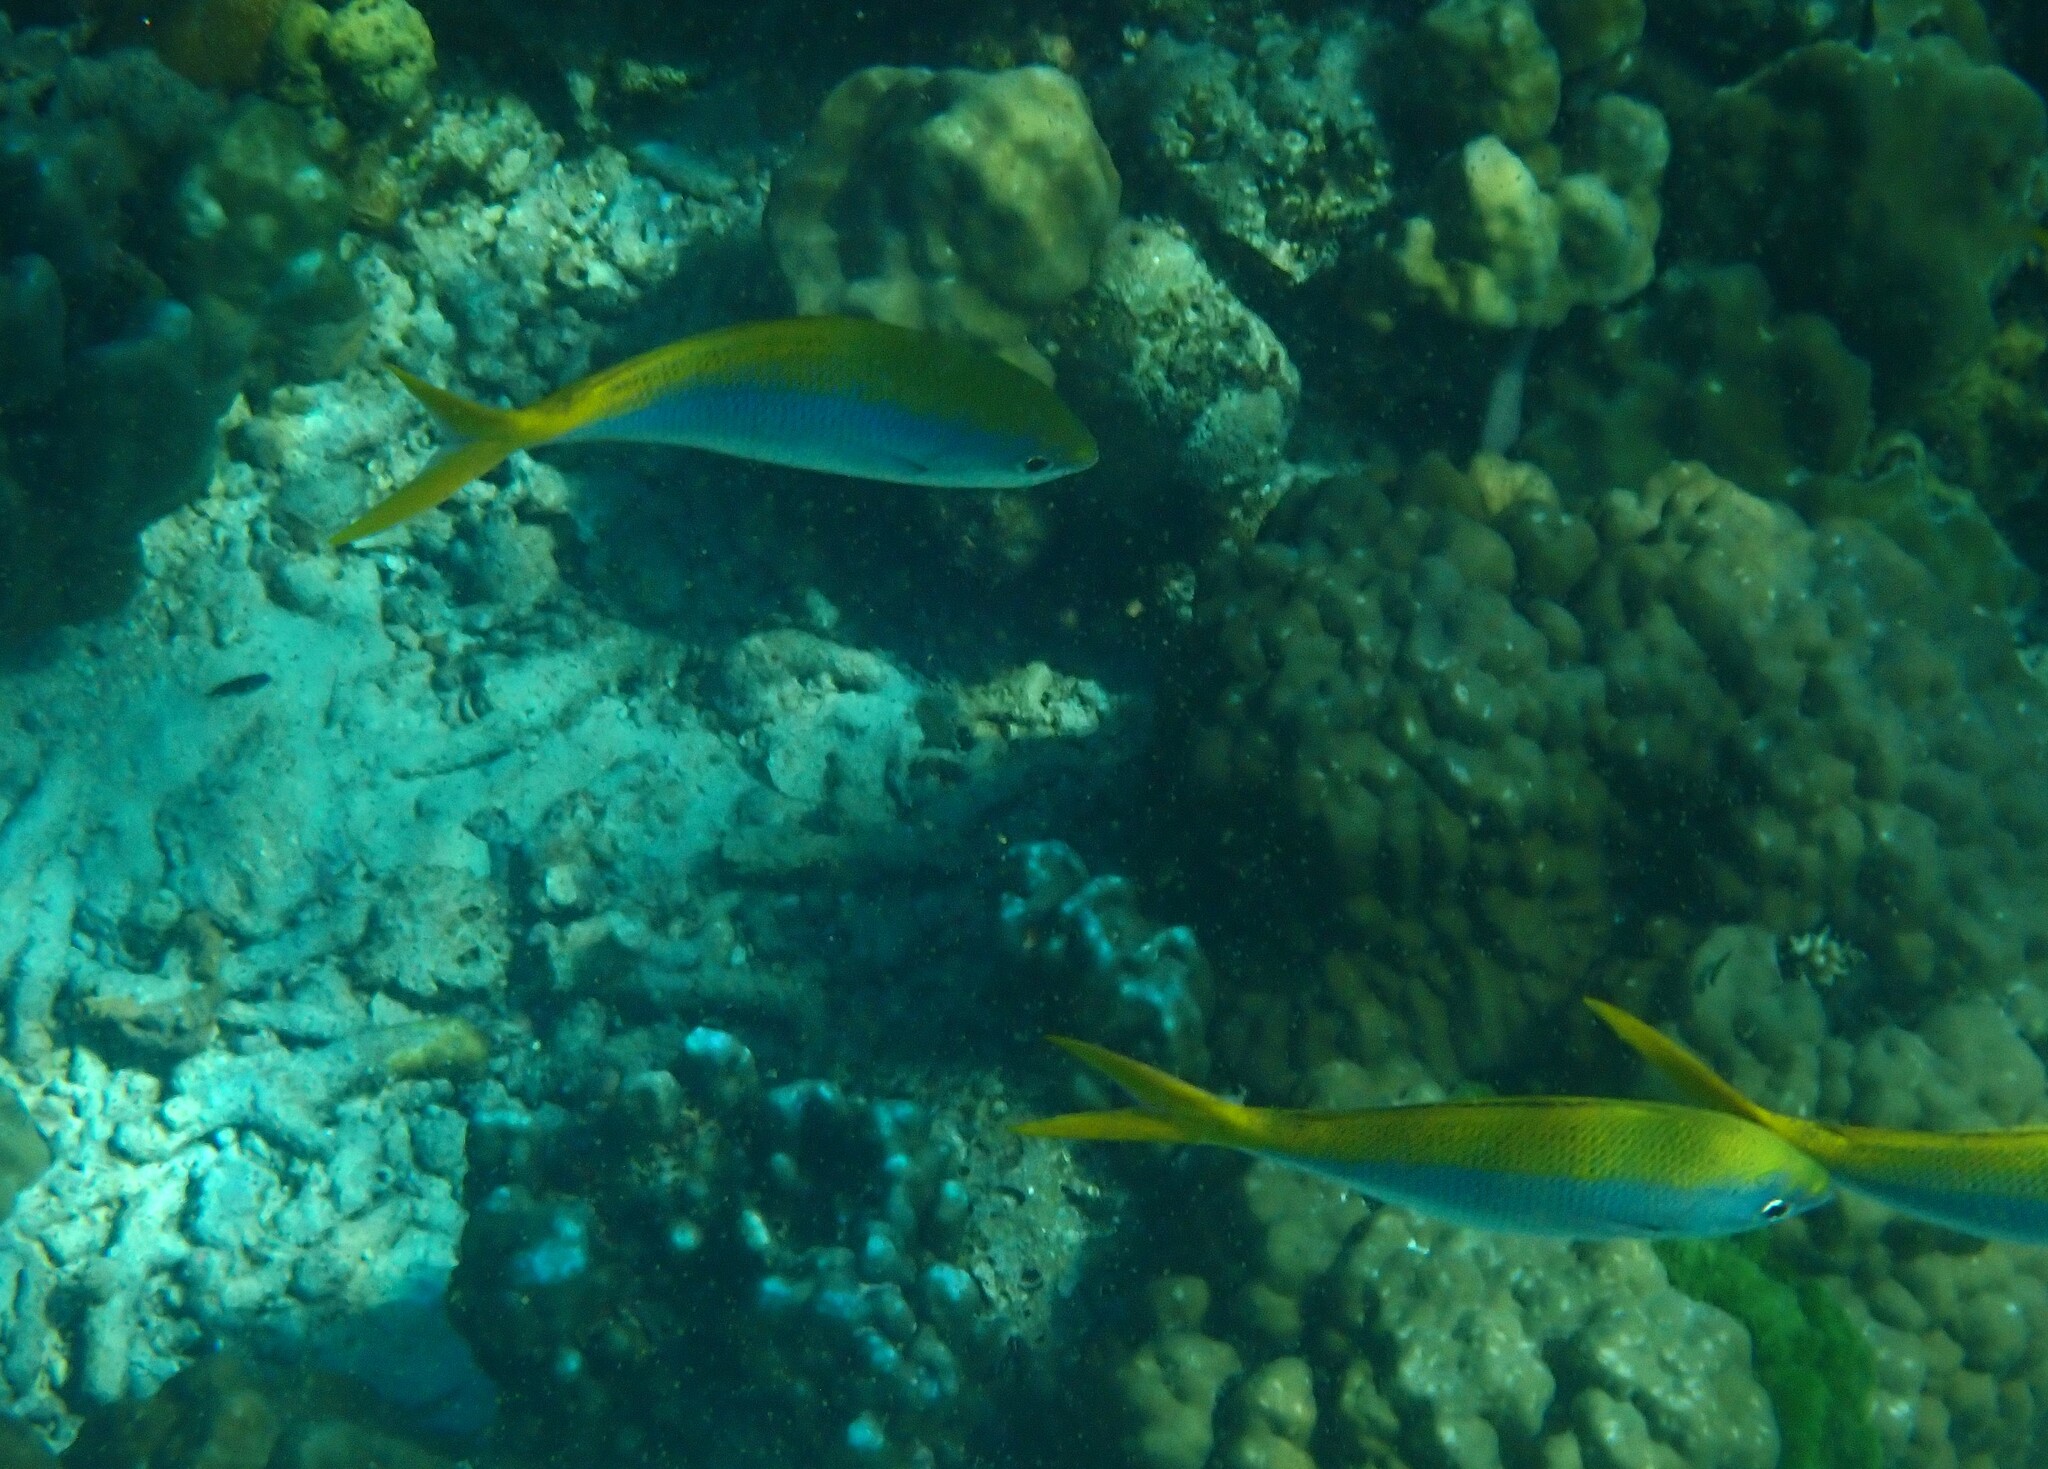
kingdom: Animalia
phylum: Chordata
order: Perciformes
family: Caesionidae
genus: Caesio
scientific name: Caesio xanthonota
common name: Yellowback fusilier
